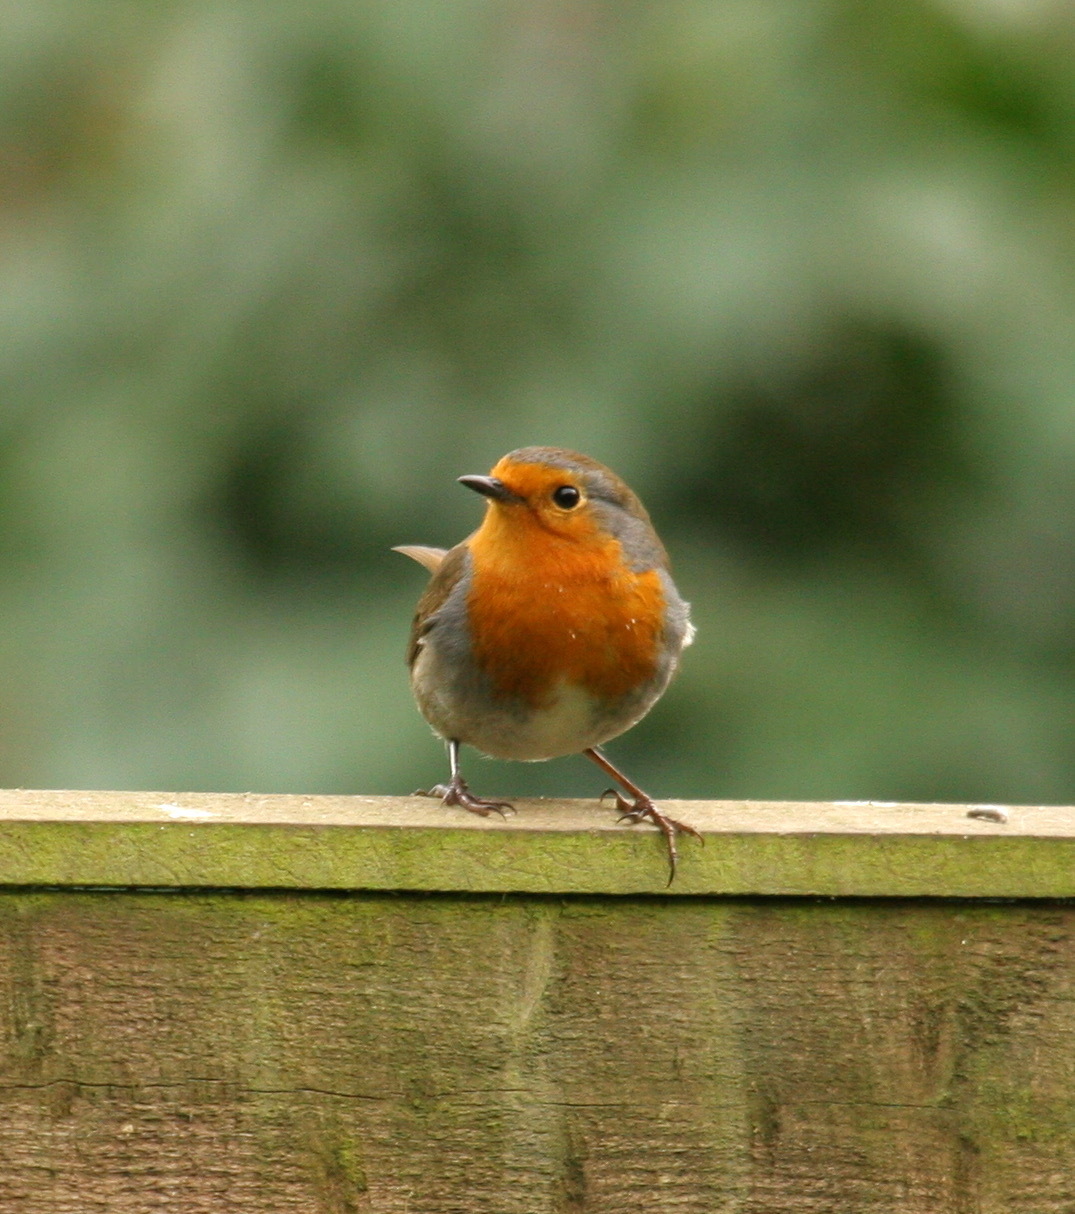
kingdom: Animalia
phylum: Chordata
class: Aves
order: Passeriformes
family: Muscicapidae
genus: Erithacus
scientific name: Erithacus rubecula
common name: European robin
